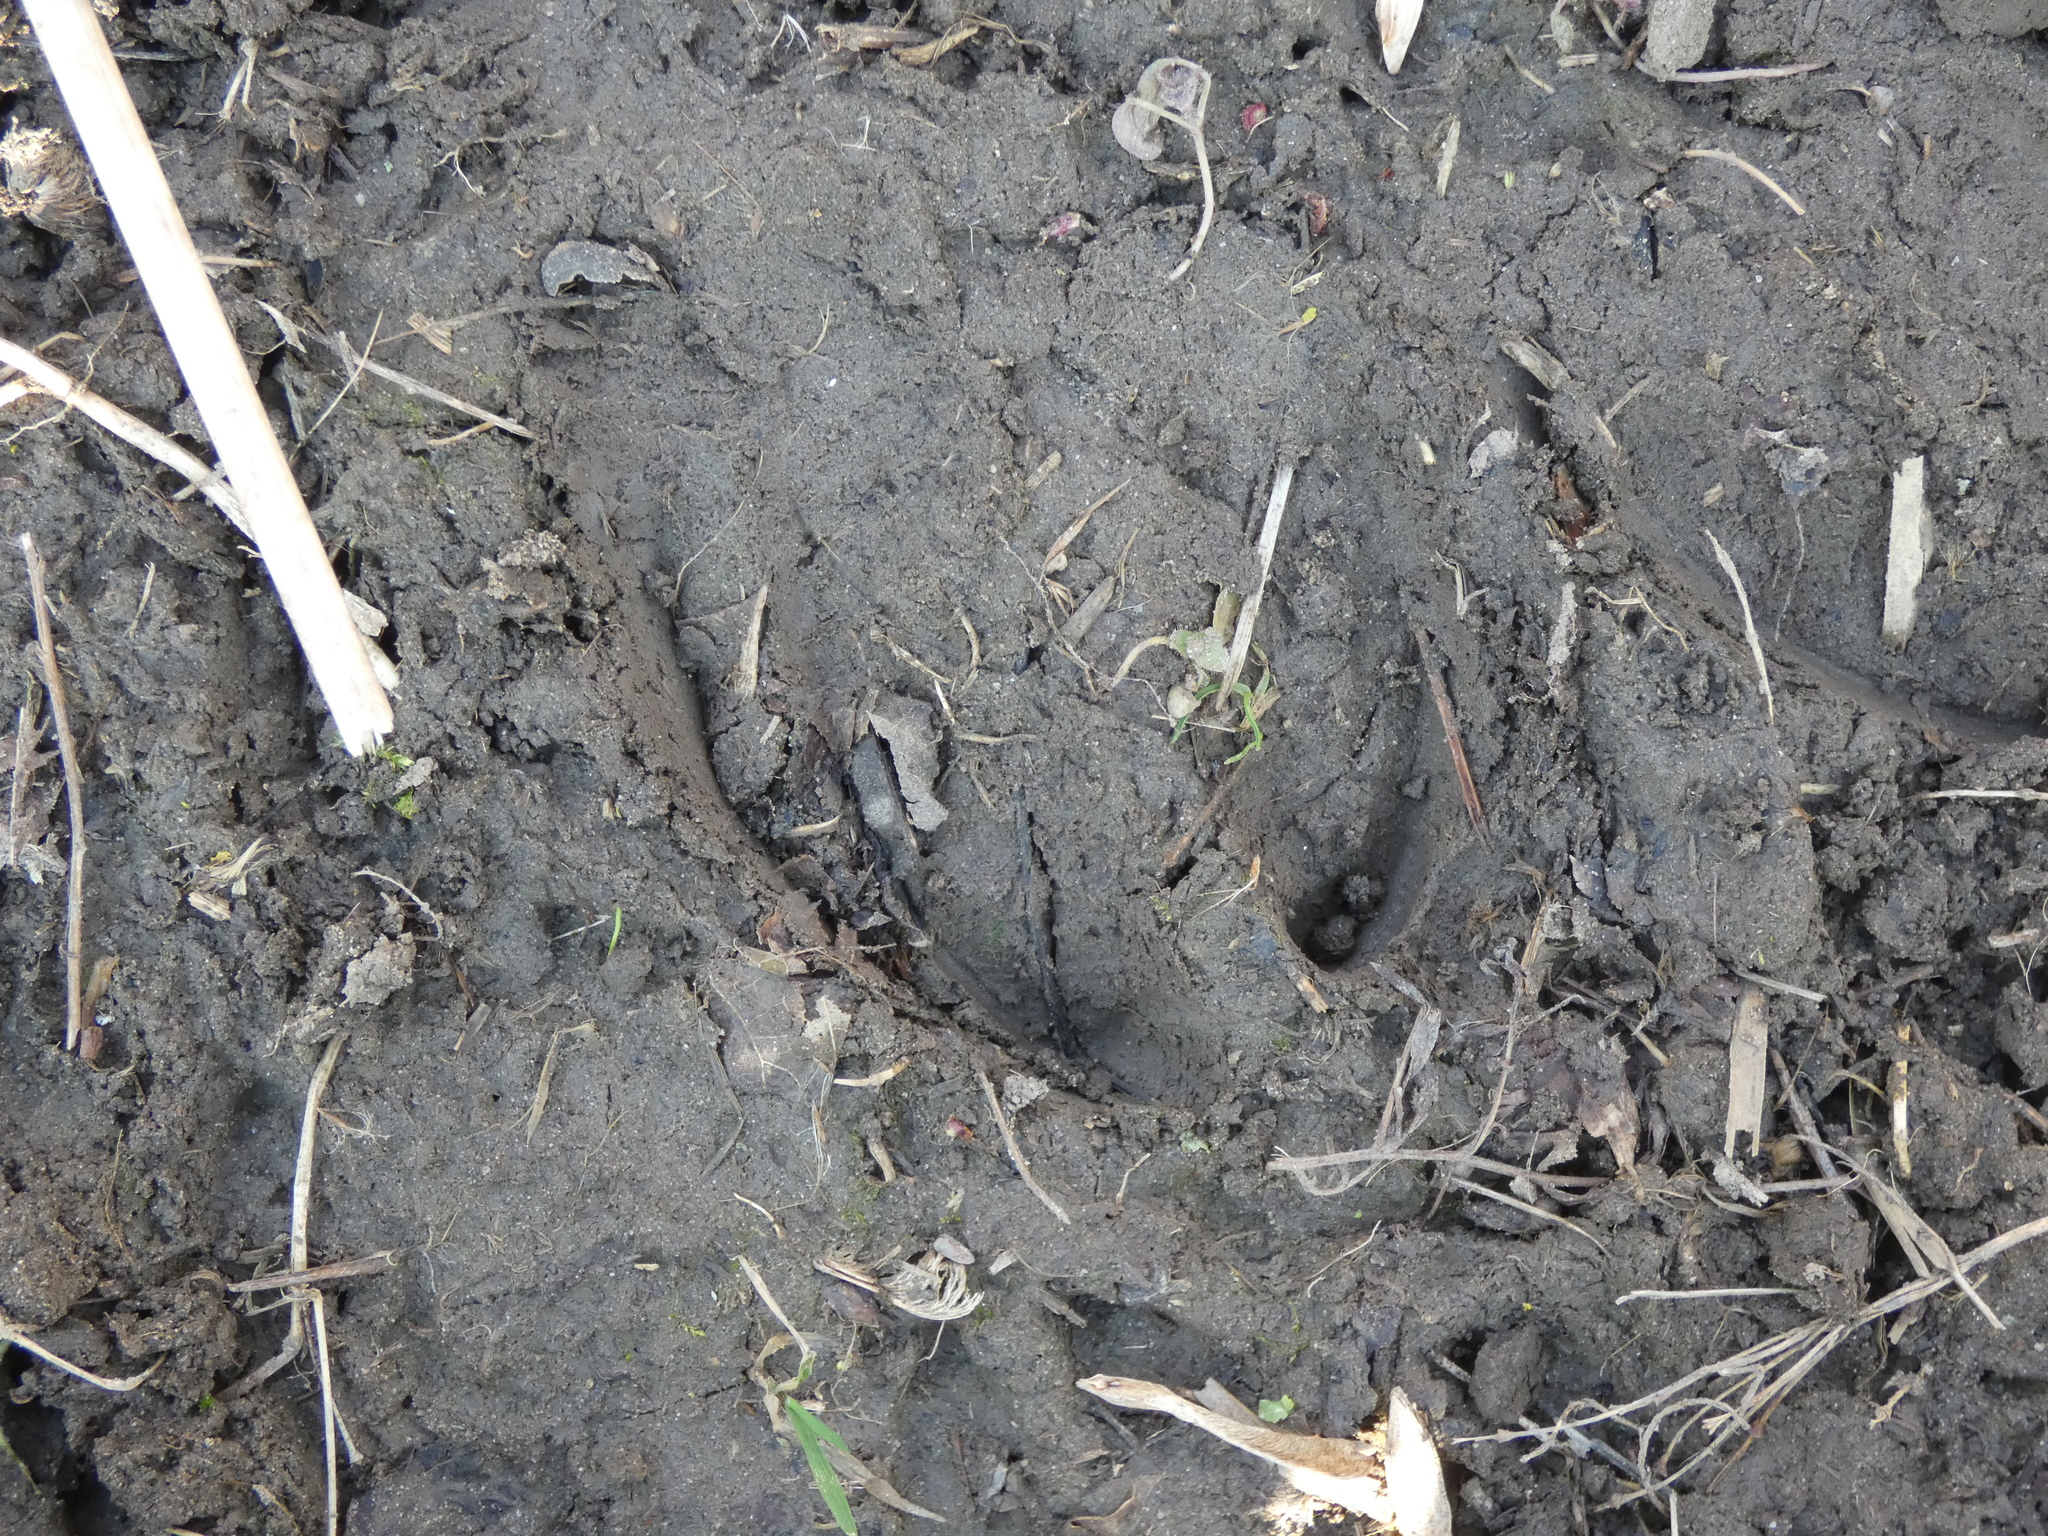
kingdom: Animalia
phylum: Chordata
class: Mammalia
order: Artiodactyla
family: Suidae
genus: Sus
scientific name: Sus scrofa
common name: Wild boar
